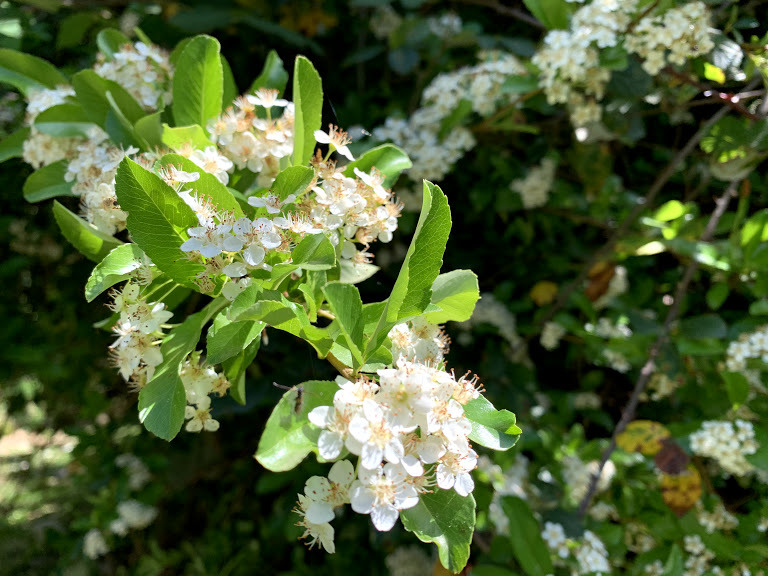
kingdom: Plantae
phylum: Tracheophyta
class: Magnoliopsida
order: Rosales
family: Rosaceae
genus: Pyracantha
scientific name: Pyracantha coccinea
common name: Firethorn
